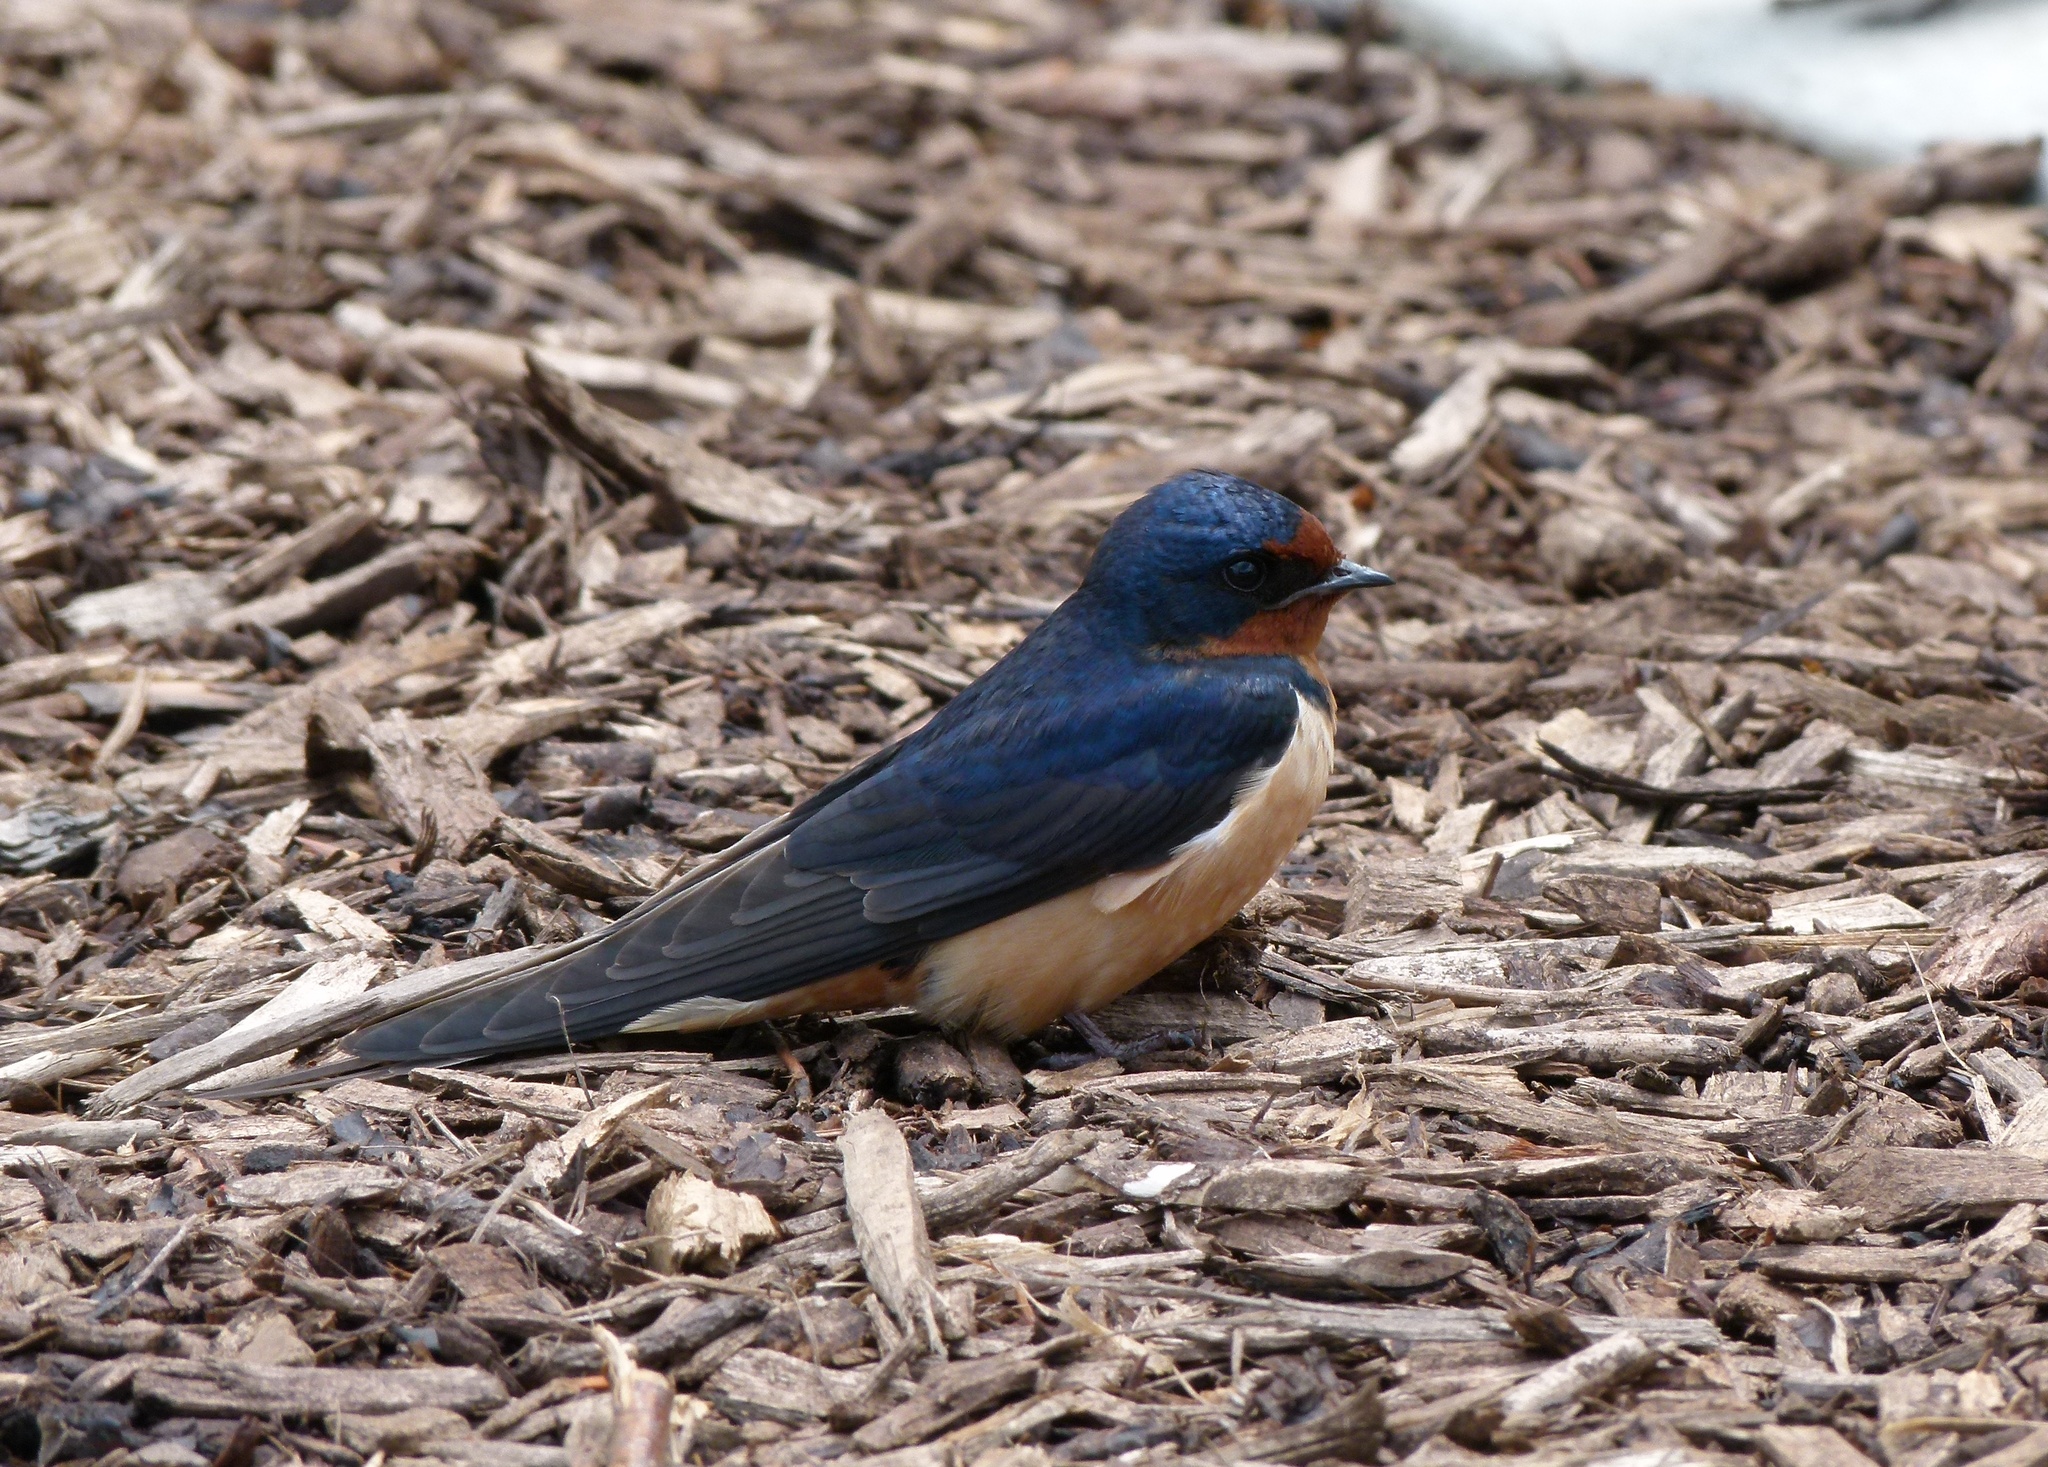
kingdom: Animalia
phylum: Chordata
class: Aves
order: Passeriformes
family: Hirundinidae
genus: Hirundo
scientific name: Hirundo rustica
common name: Barn swallow
